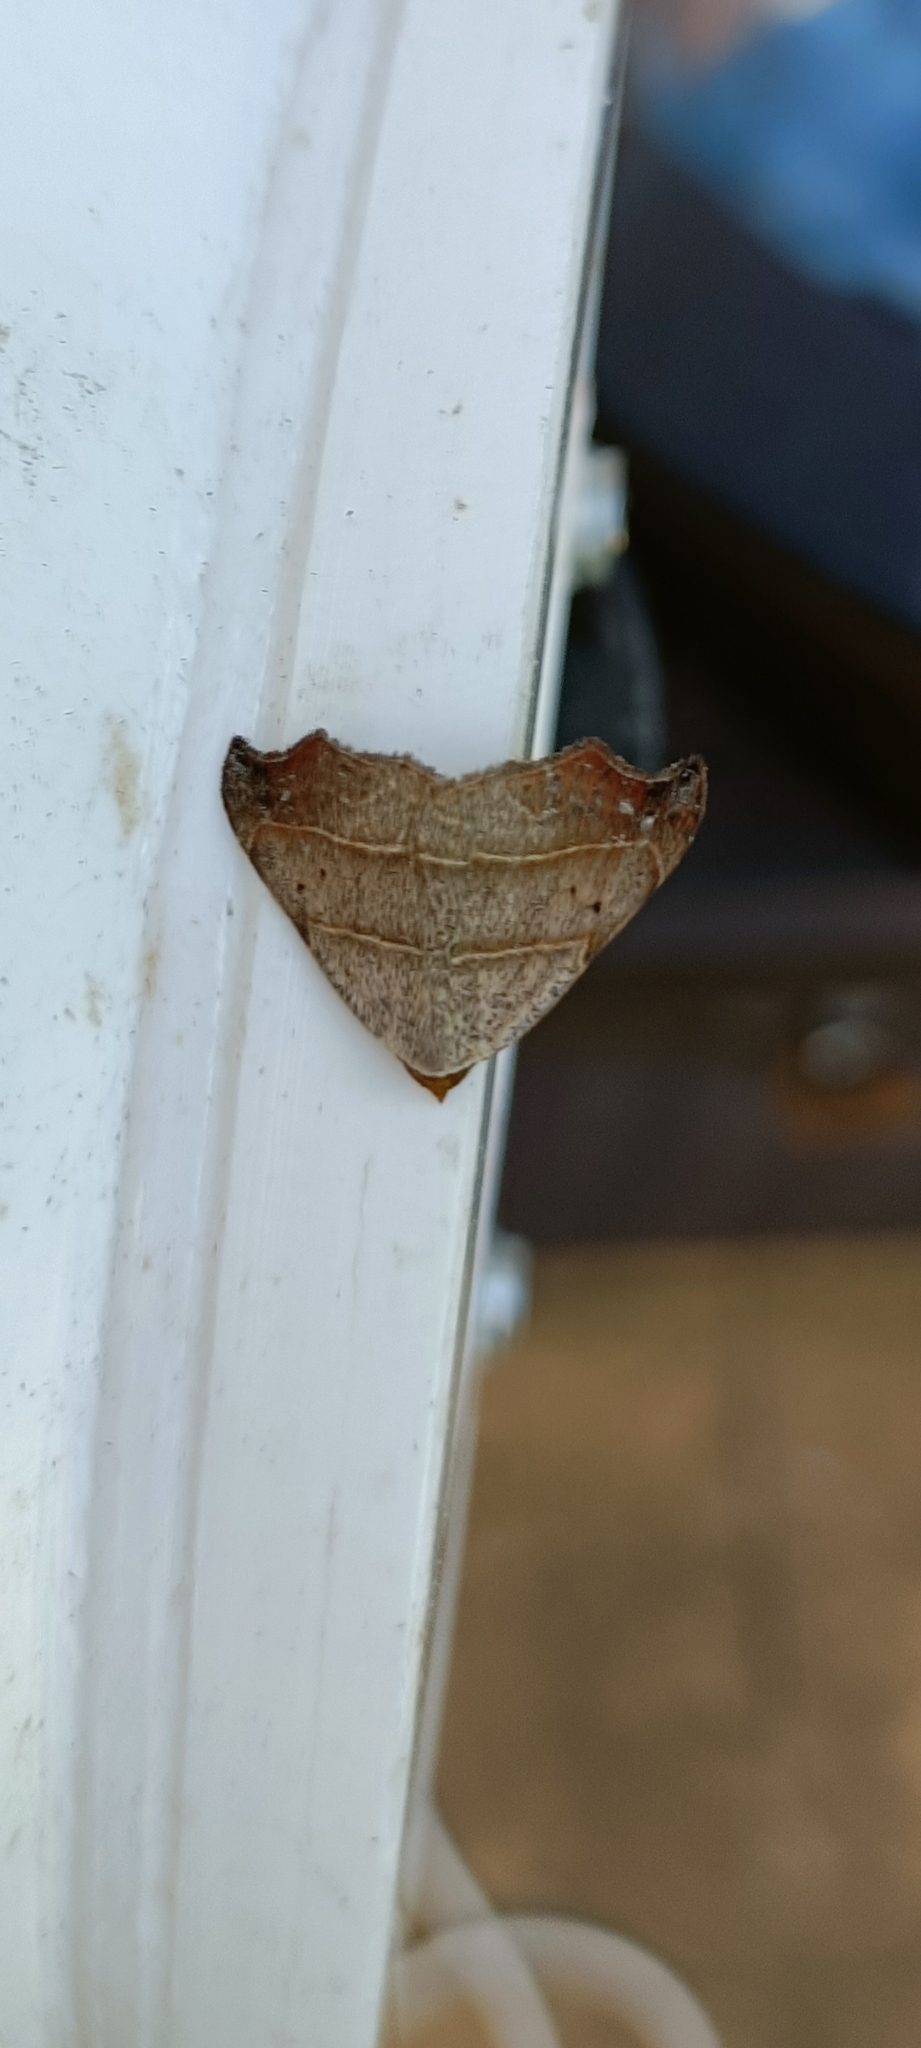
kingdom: Animalia
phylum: Arthropoda
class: Insecta
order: Lepidoptera
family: Erebidae
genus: Laspeyria
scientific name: Laspeyria flexula
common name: Beautiful hook-tip
